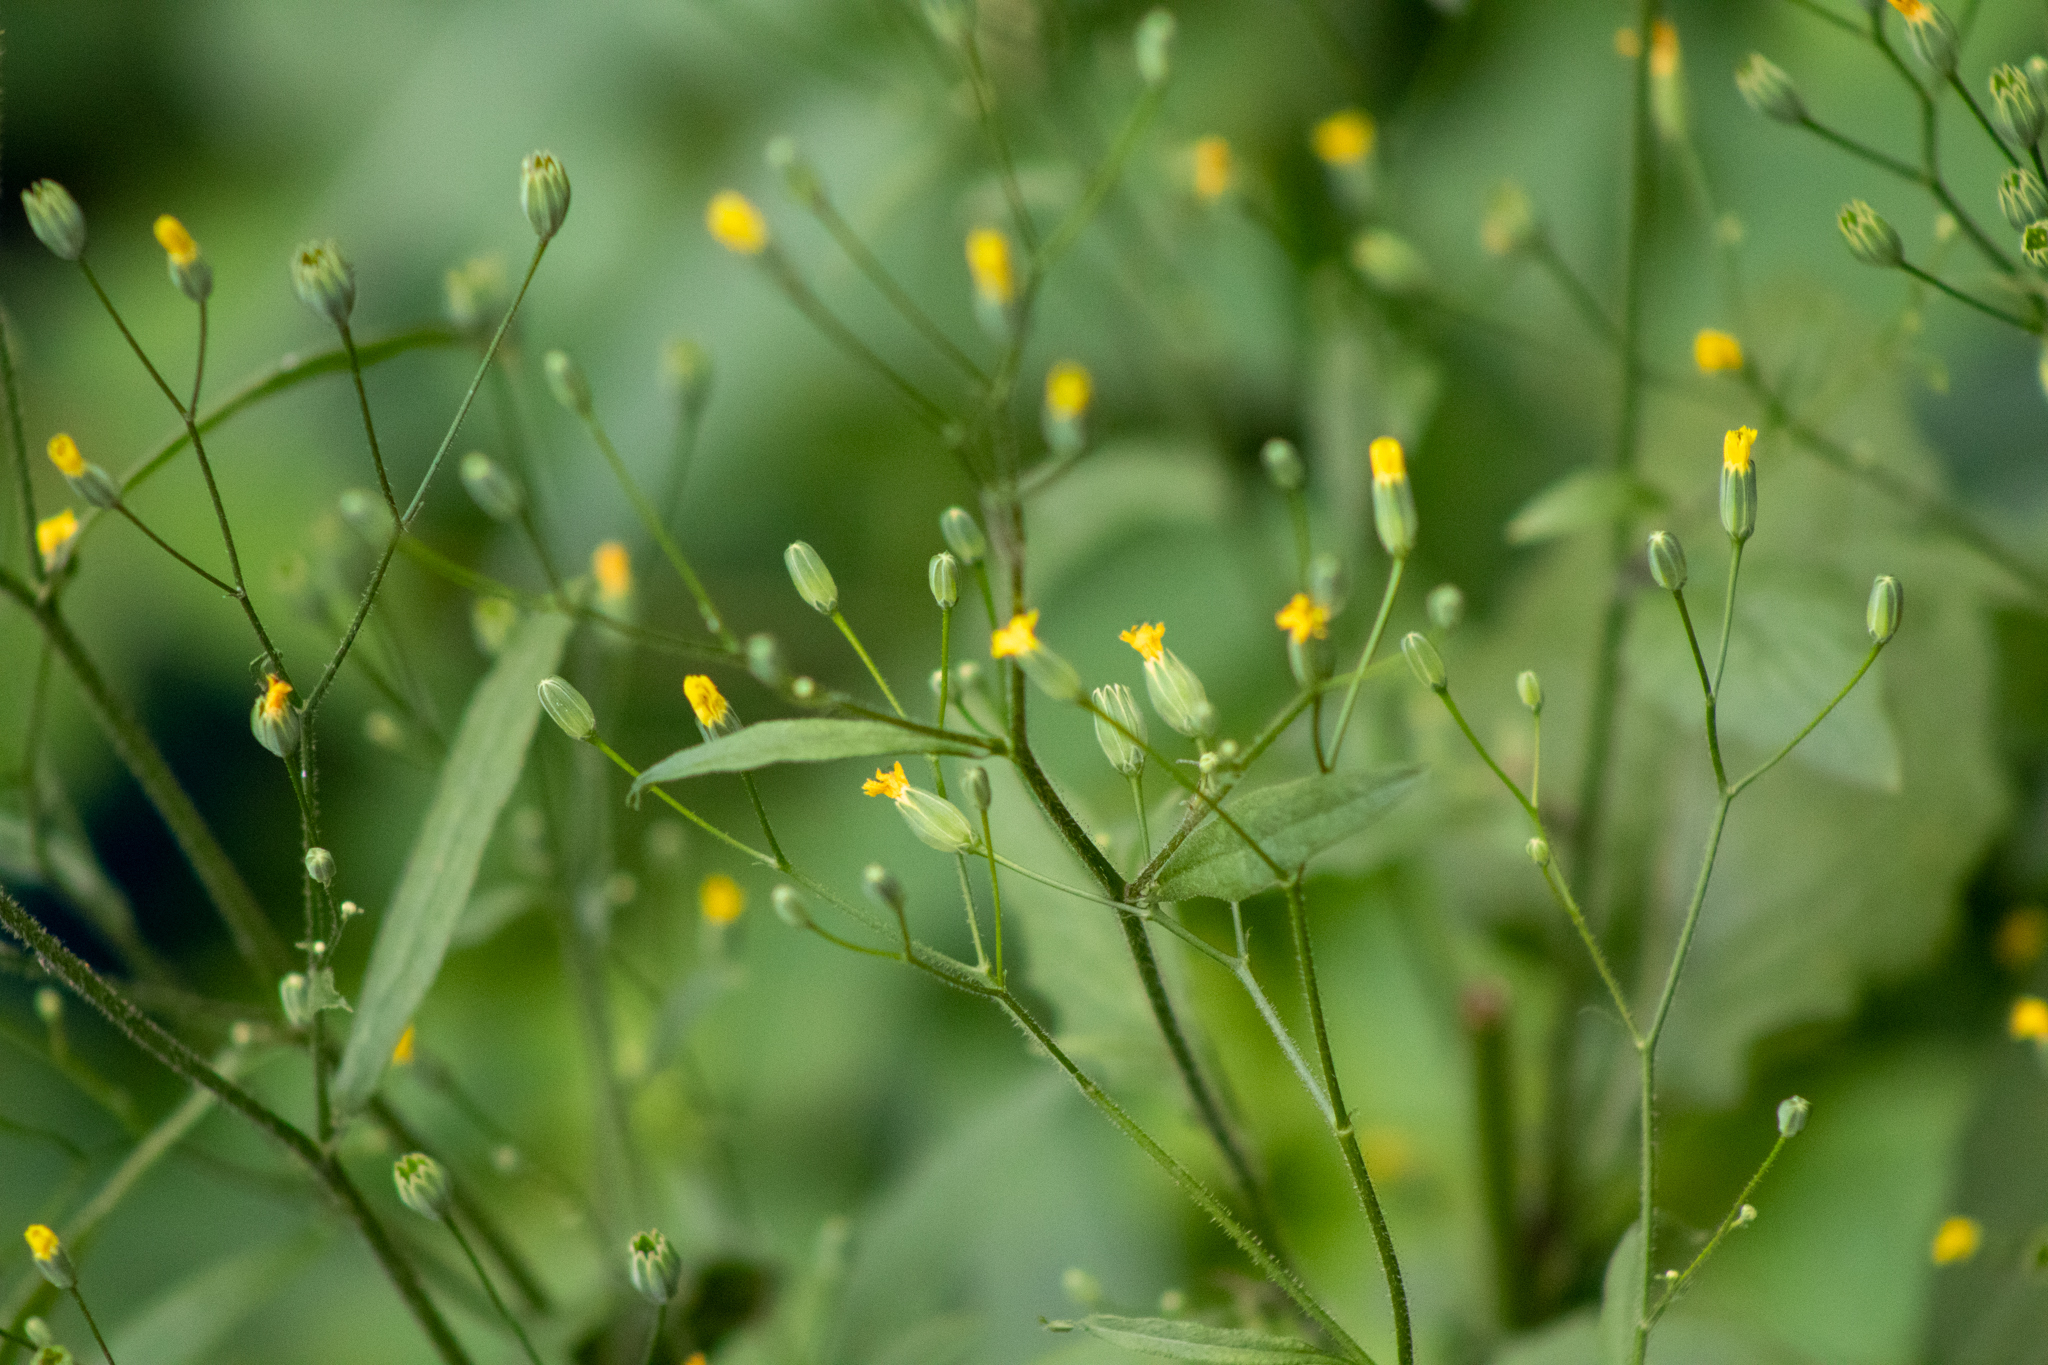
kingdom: Plantae
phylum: Tracheophyta
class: Magnoliopsida
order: Asterales
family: Asteraceae
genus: Lapsana
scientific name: Lapsana communis
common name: Nipplewort
